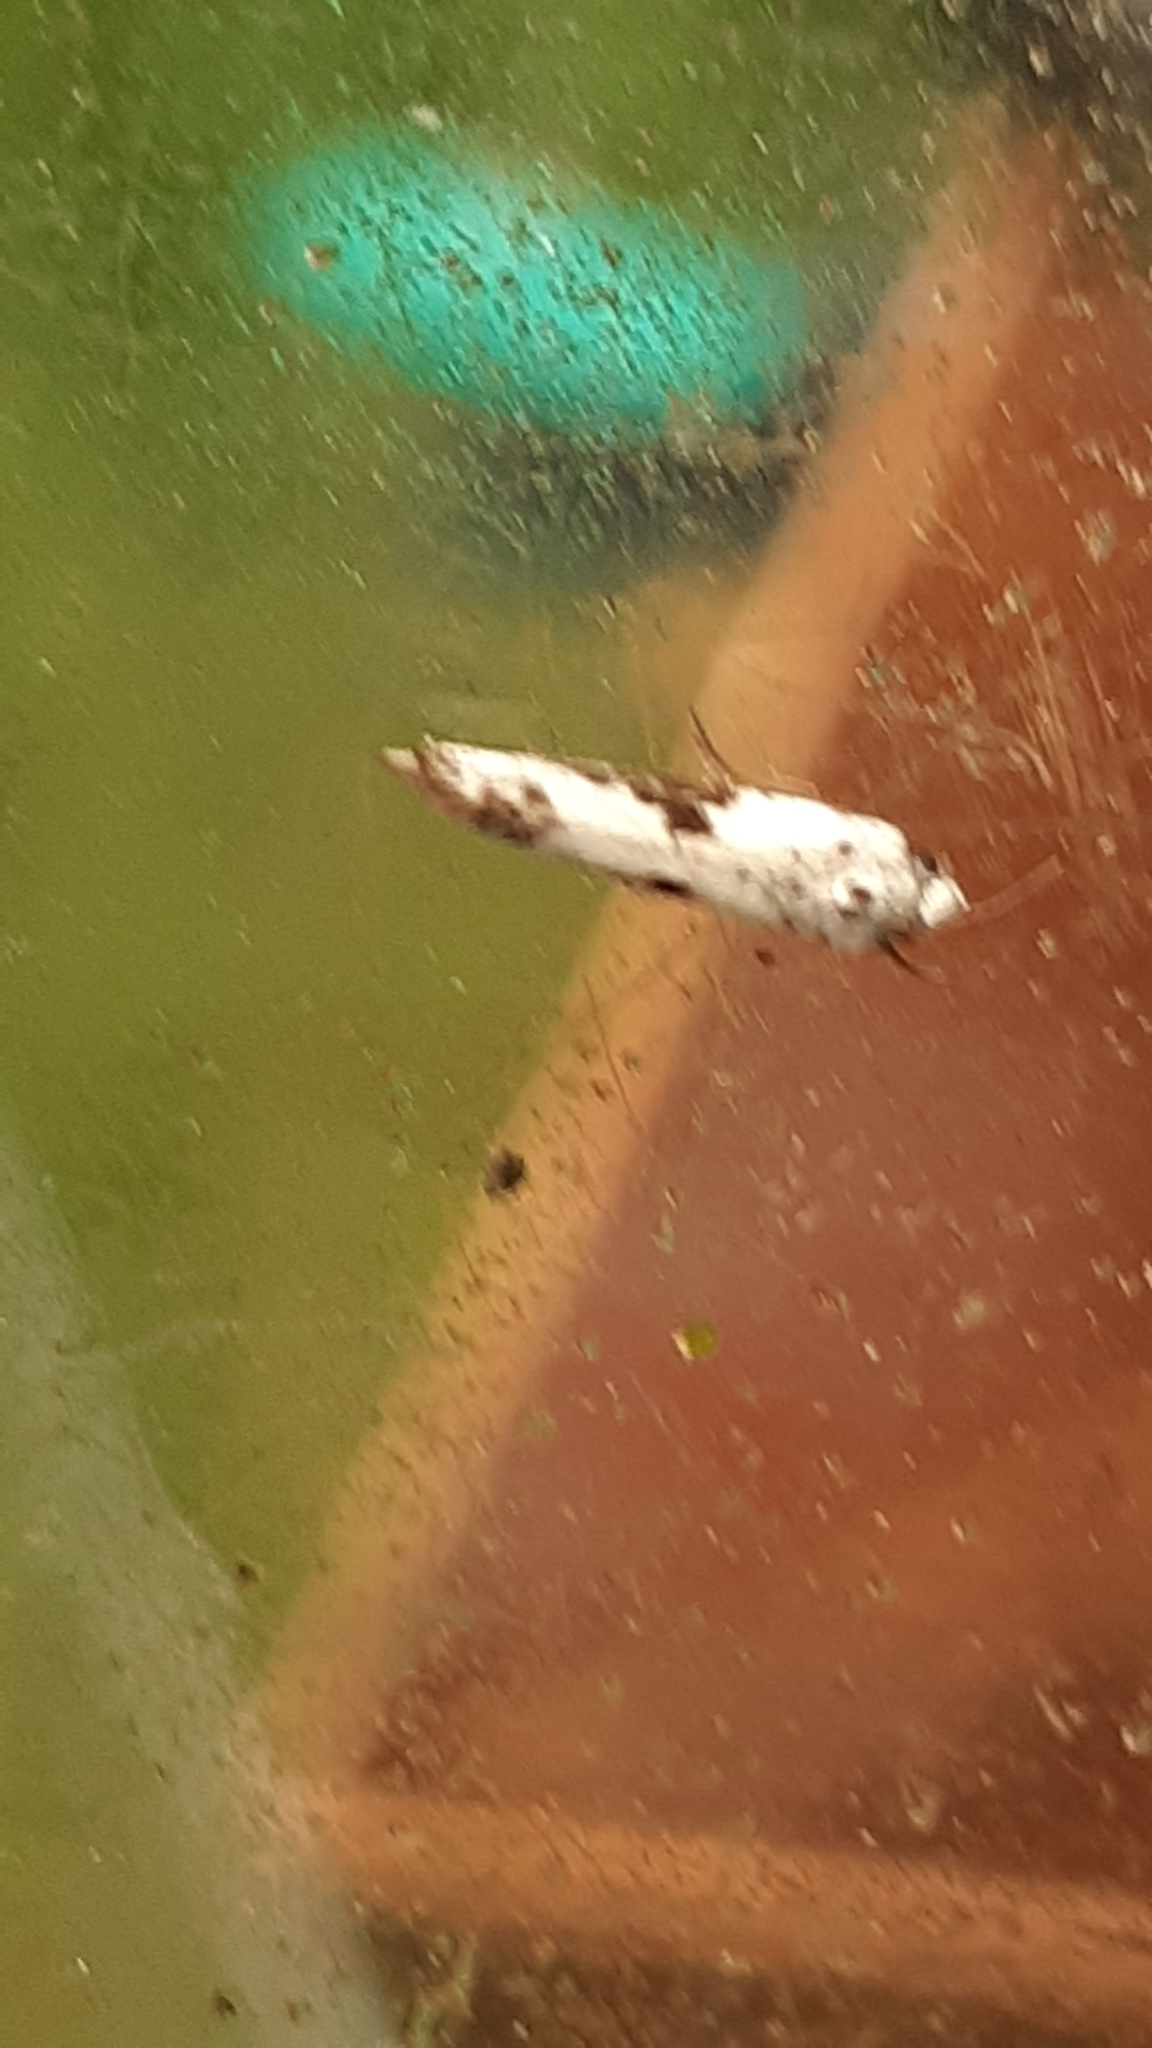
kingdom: Animalia
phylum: Arthropoda
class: Insecta
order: Lepidoptera
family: Praydidae
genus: Prays
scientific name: Prays fraxinella
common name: Ash bud moth
